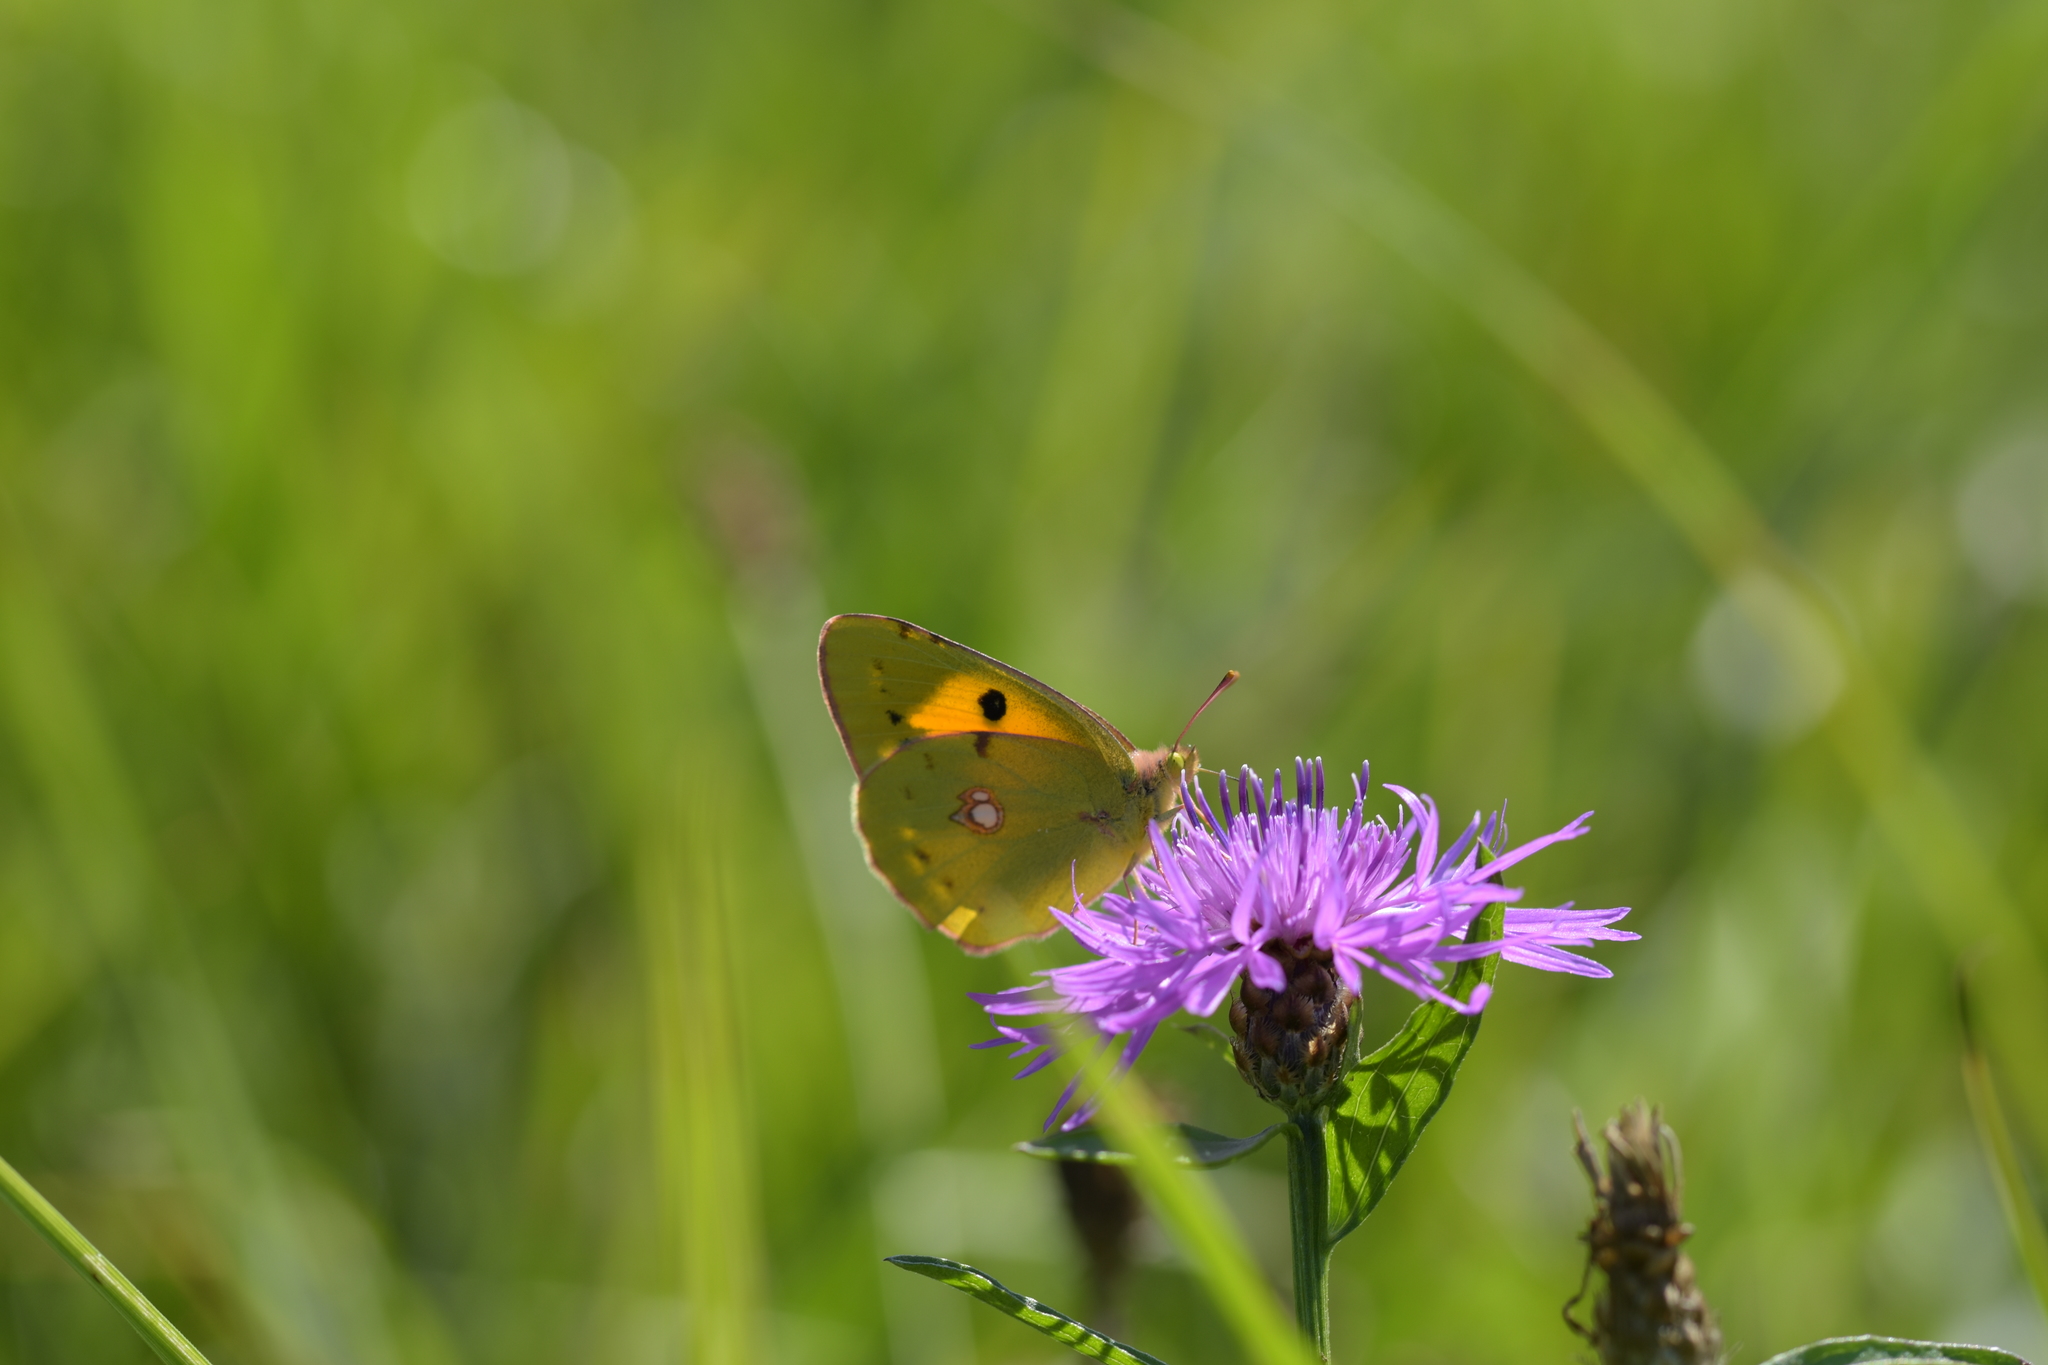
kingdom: Animalia
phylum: Arthropoda
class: Insecta
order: Lepidoptera
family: Pieridae
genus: Colias
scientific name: Colias croceus
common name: Clouded yellow
